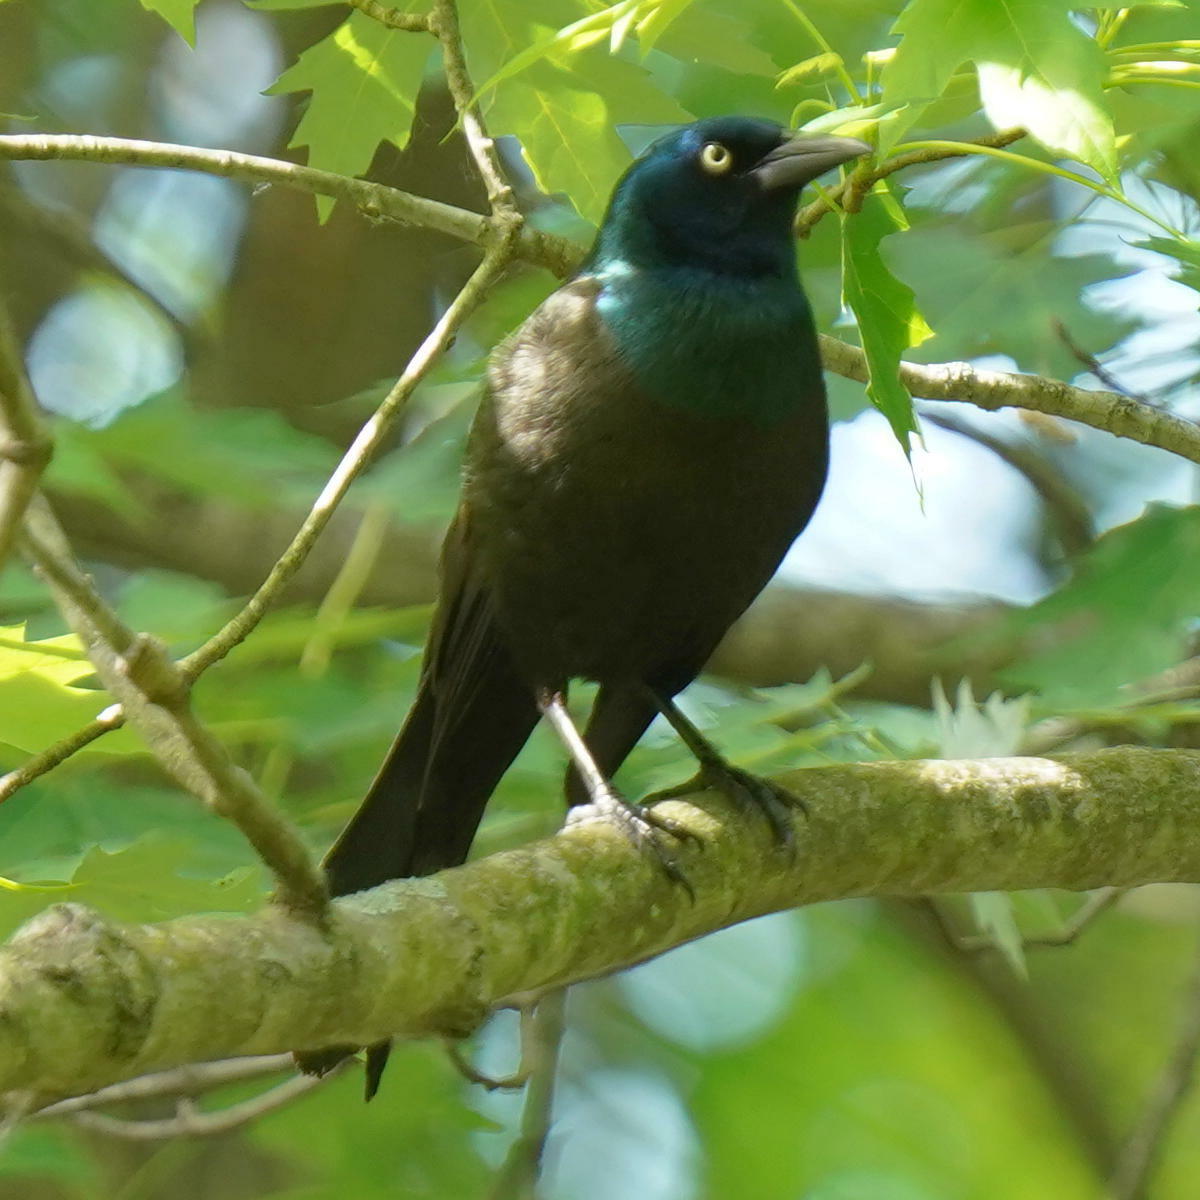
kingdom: Animalia
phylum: Chordata
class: Aves
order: Passeriformes
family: Icteridae
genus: Quiscalus
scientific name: Quiscalus quiscula
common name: Common grackle
